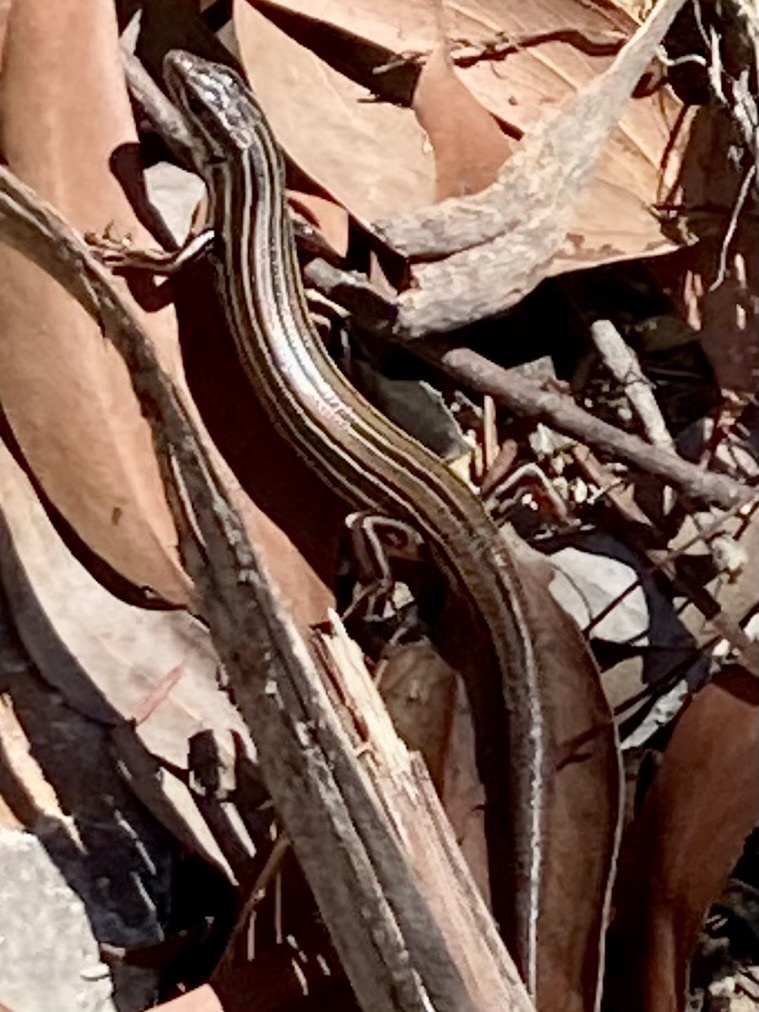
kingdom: Animalia
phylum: Chordata
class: Squamata
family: Scincidae
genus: Ctenotus
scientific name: Ctenotus taeniolatus
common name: Copper-tailed skink
